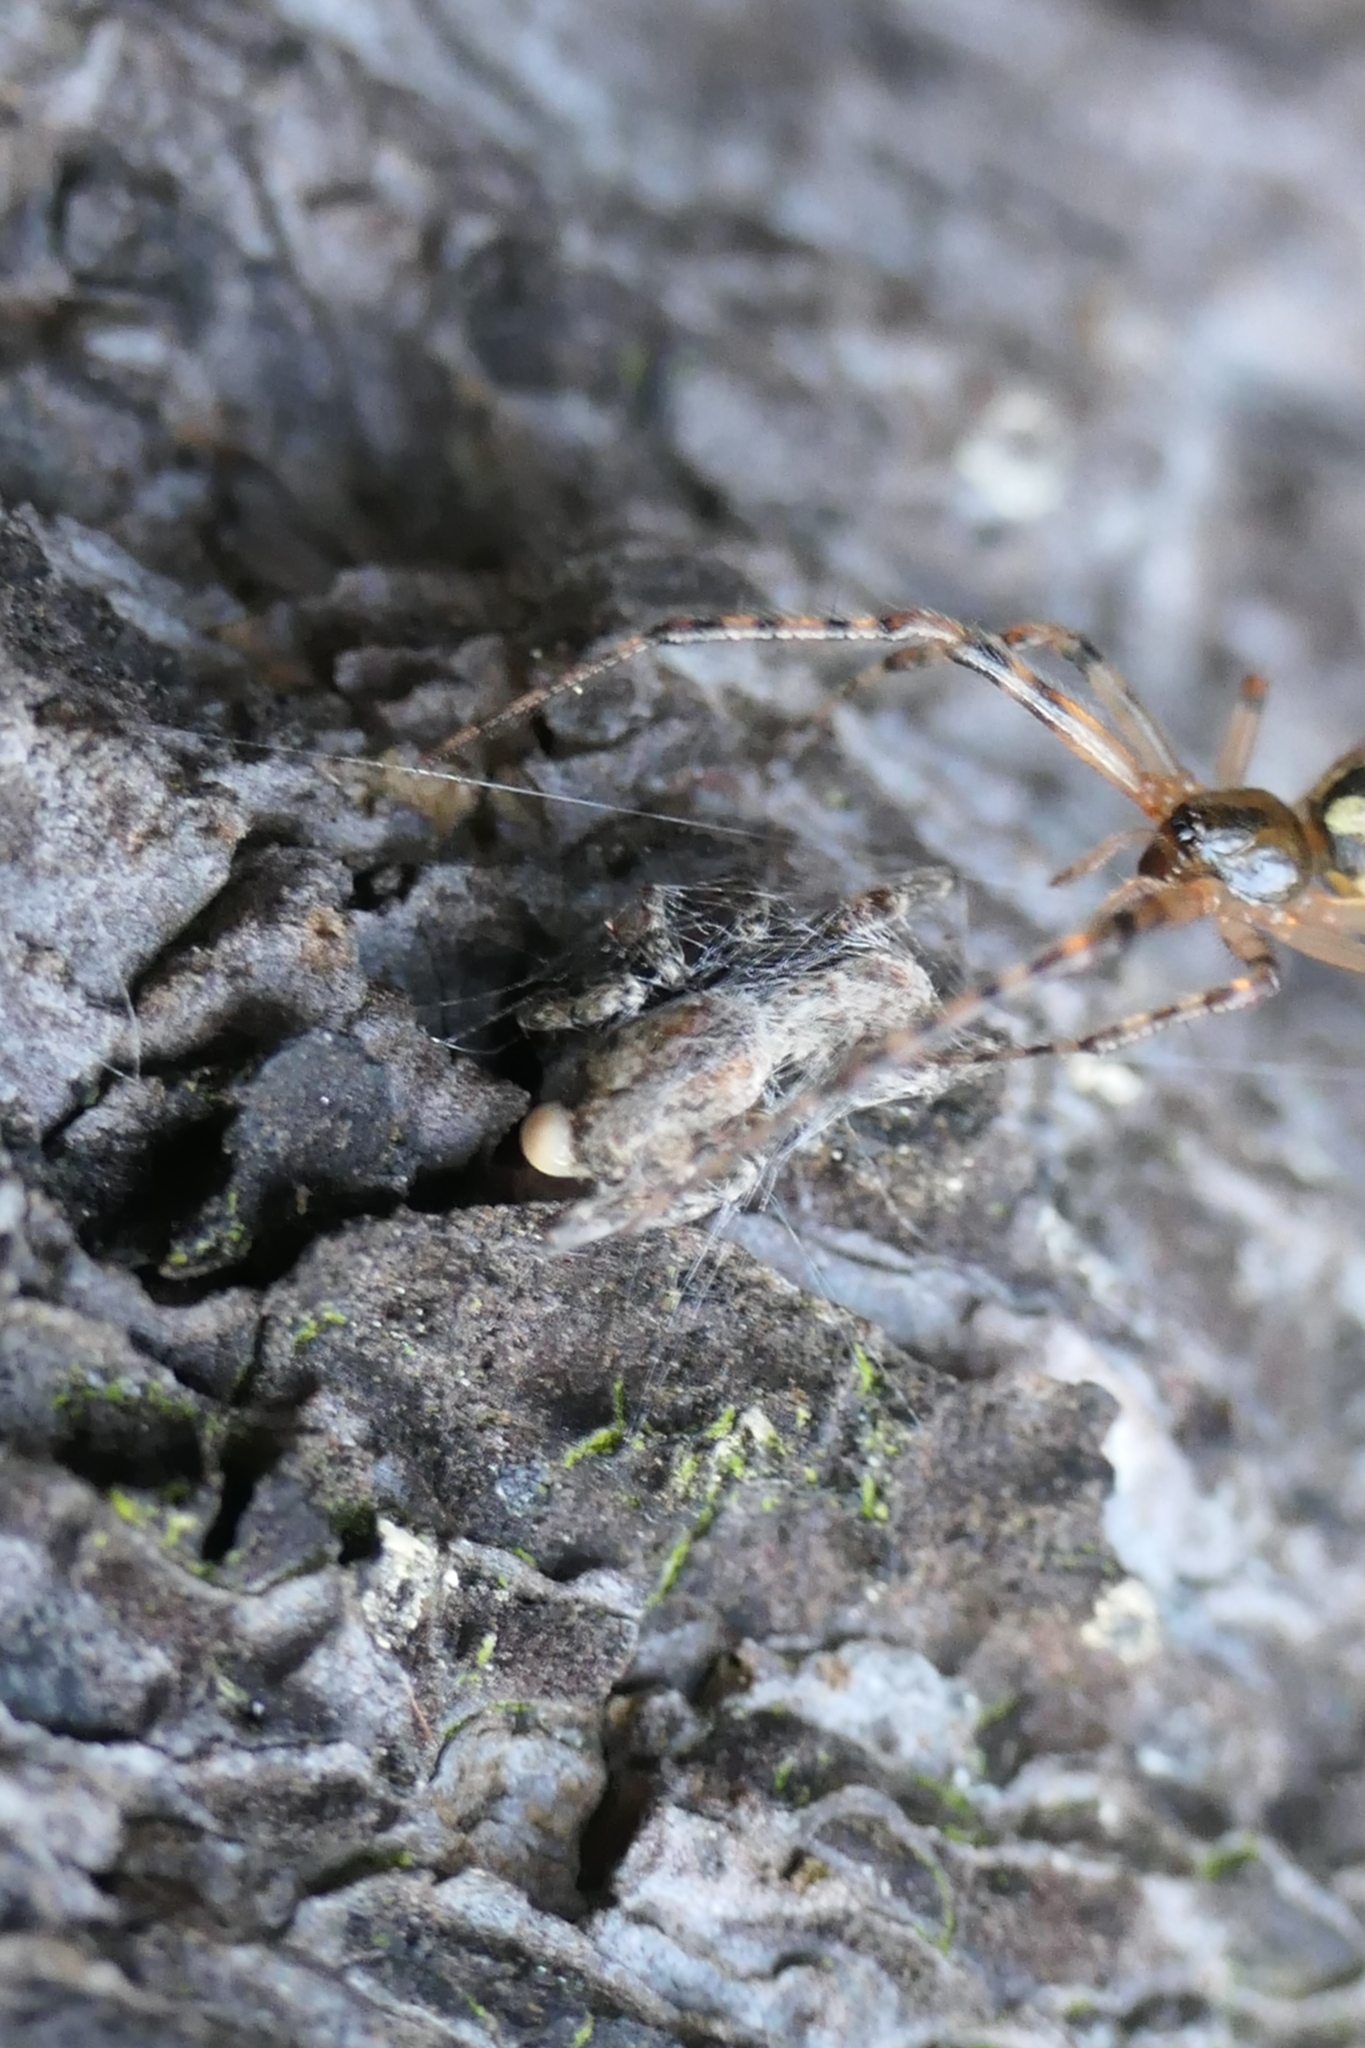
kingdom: Animalia
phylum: Arthropoda
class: Arachnida
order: Araneae
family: Theridiidae
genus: Cryptachaea
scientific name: Cryptachaea veruculata
